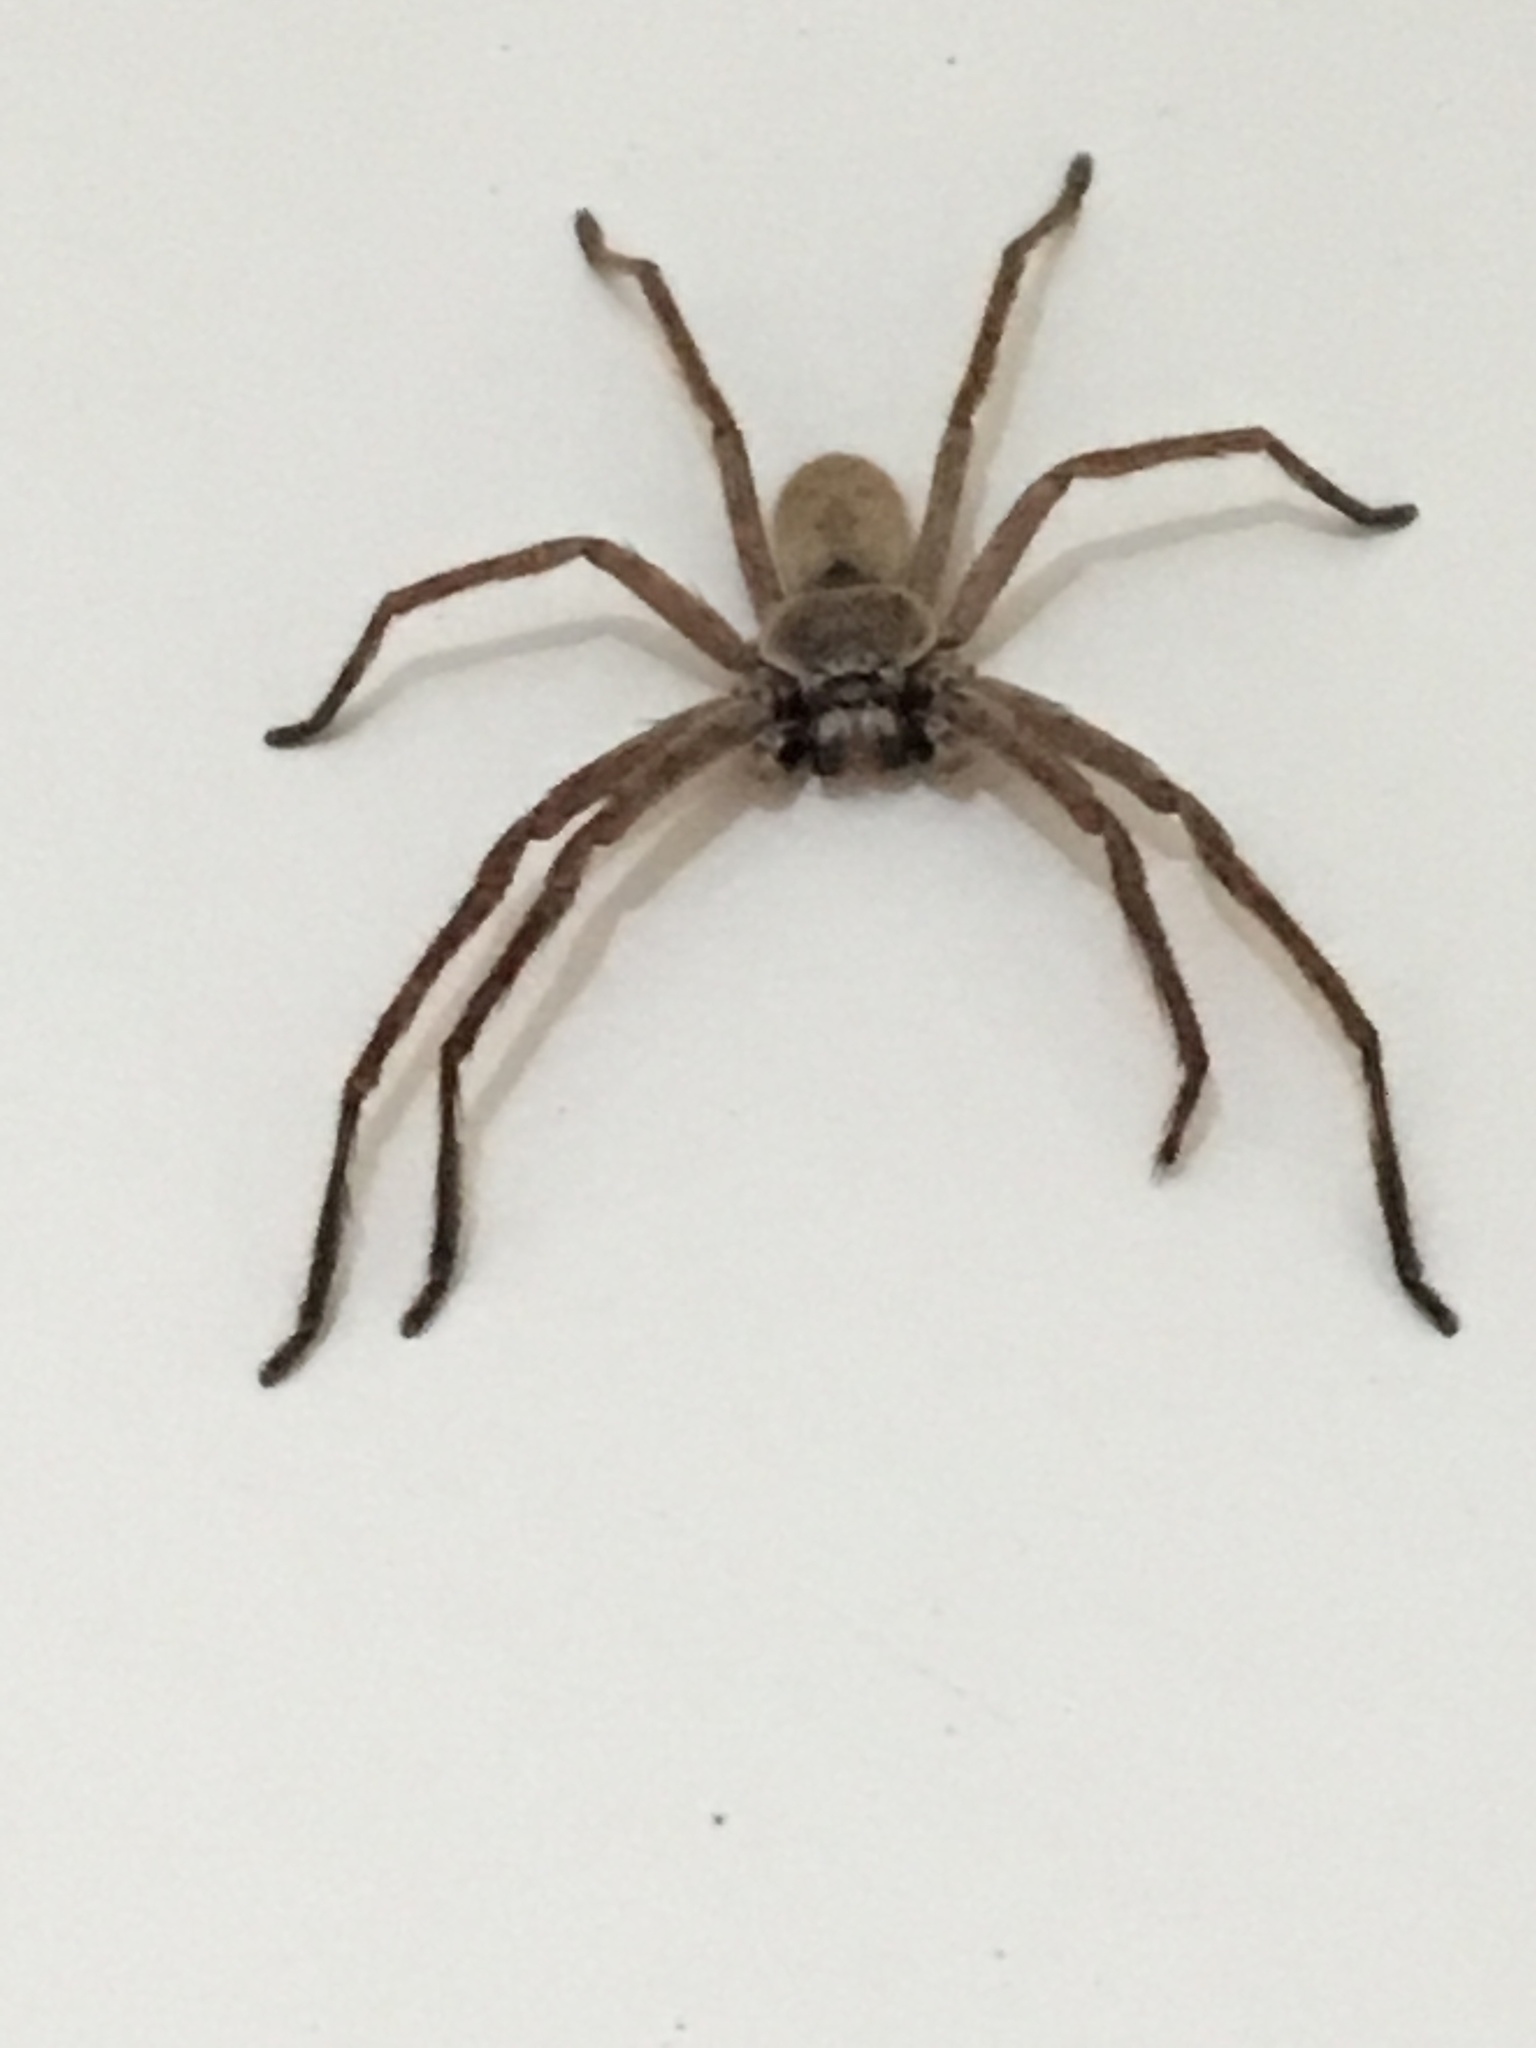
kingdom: Animalia
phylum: Arthropoda
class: Arachnida
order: Araneae
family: Sparassidae
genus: Isopeda
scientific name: Isopeda villosa
